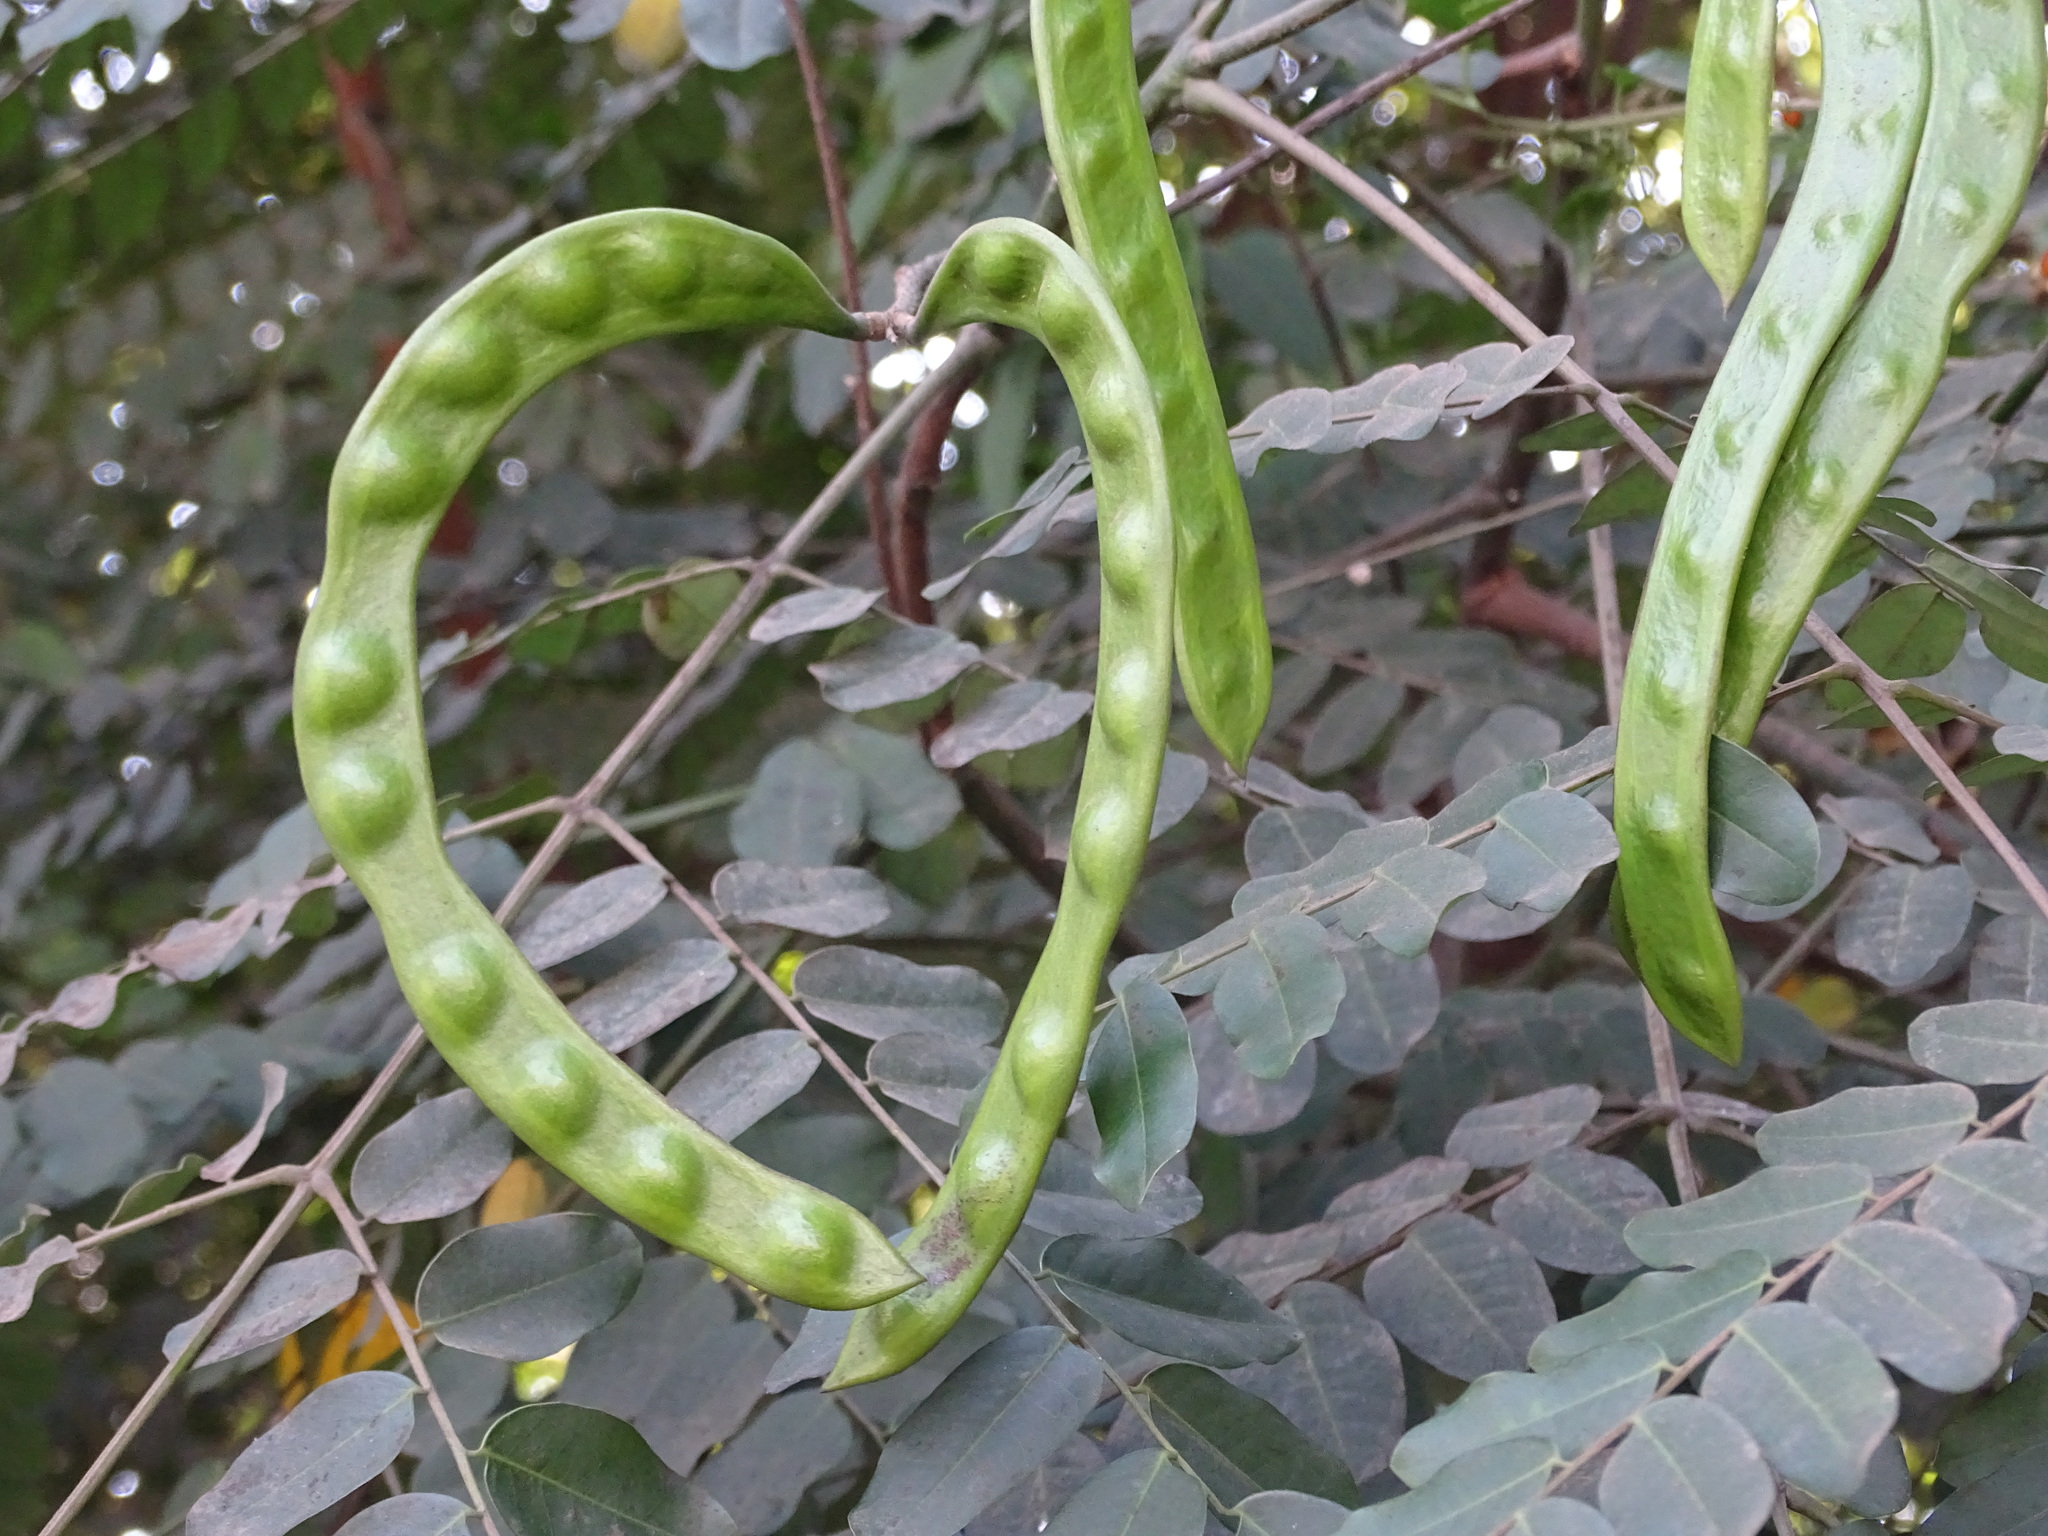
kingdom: Plantae
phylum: Tracheophyta
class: Magnoliopsida
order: Fabales
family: Fabaceae
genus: Adenanthera
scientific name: Adenanthera pavonina
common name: Red beadtree
